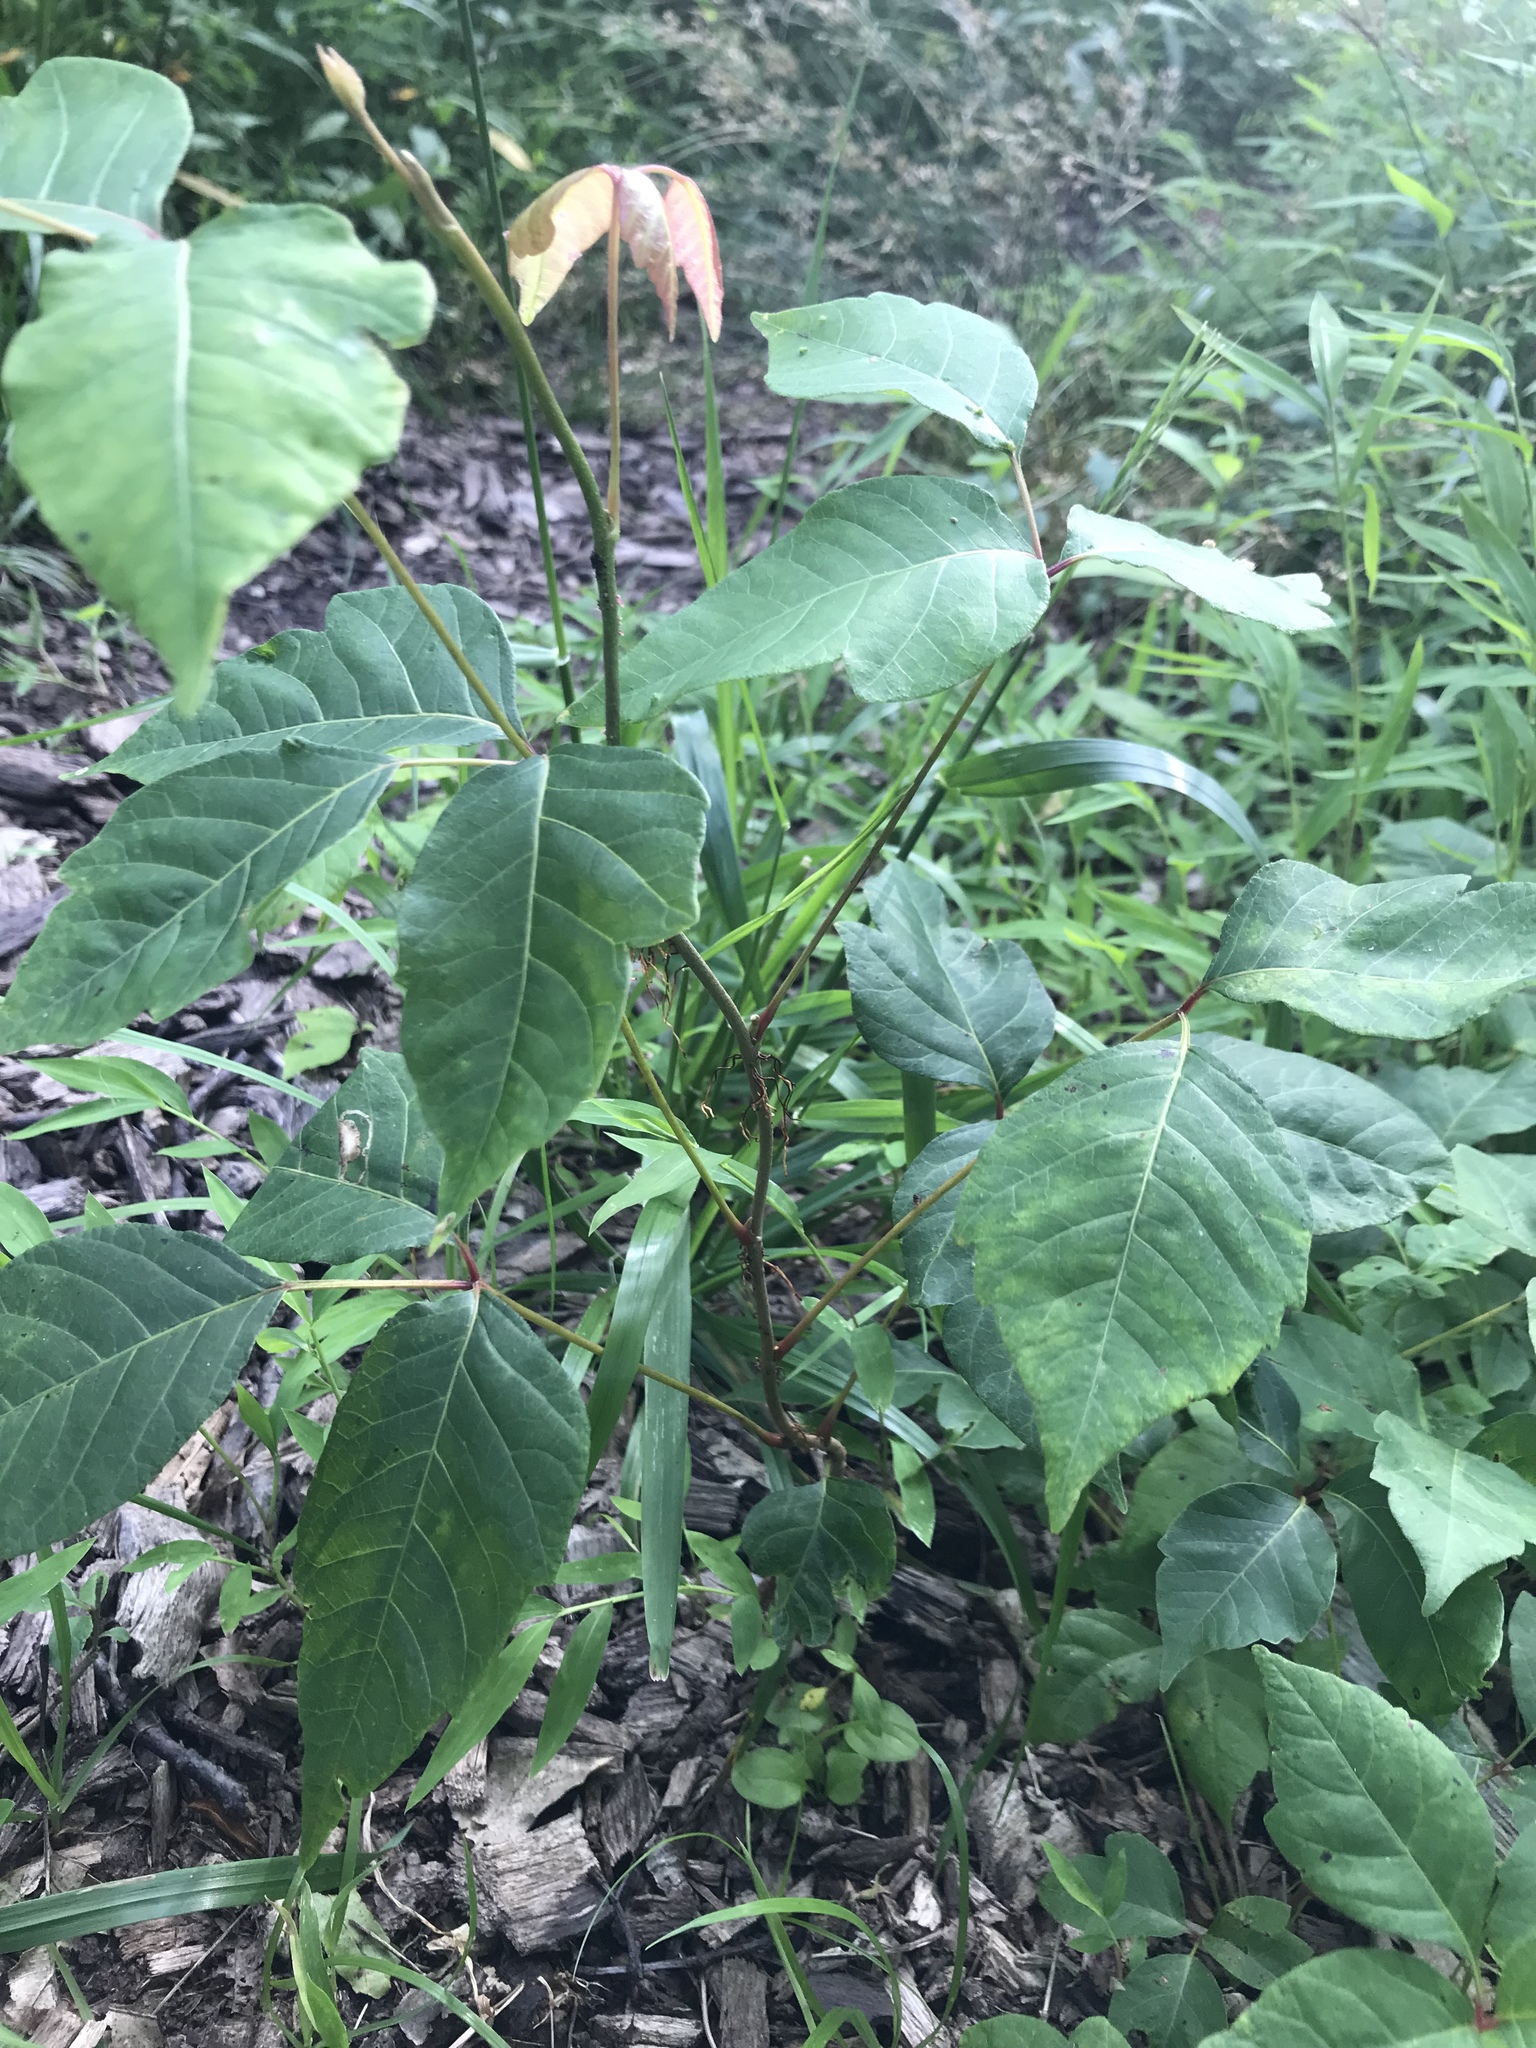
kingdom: Plantae
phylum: Tracheophyta
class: Magnoliopsida
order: Sapindales
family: Anacardiaceae
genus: Toxicodendron
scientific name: Toxicodendron radicans
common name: Poison ivy
